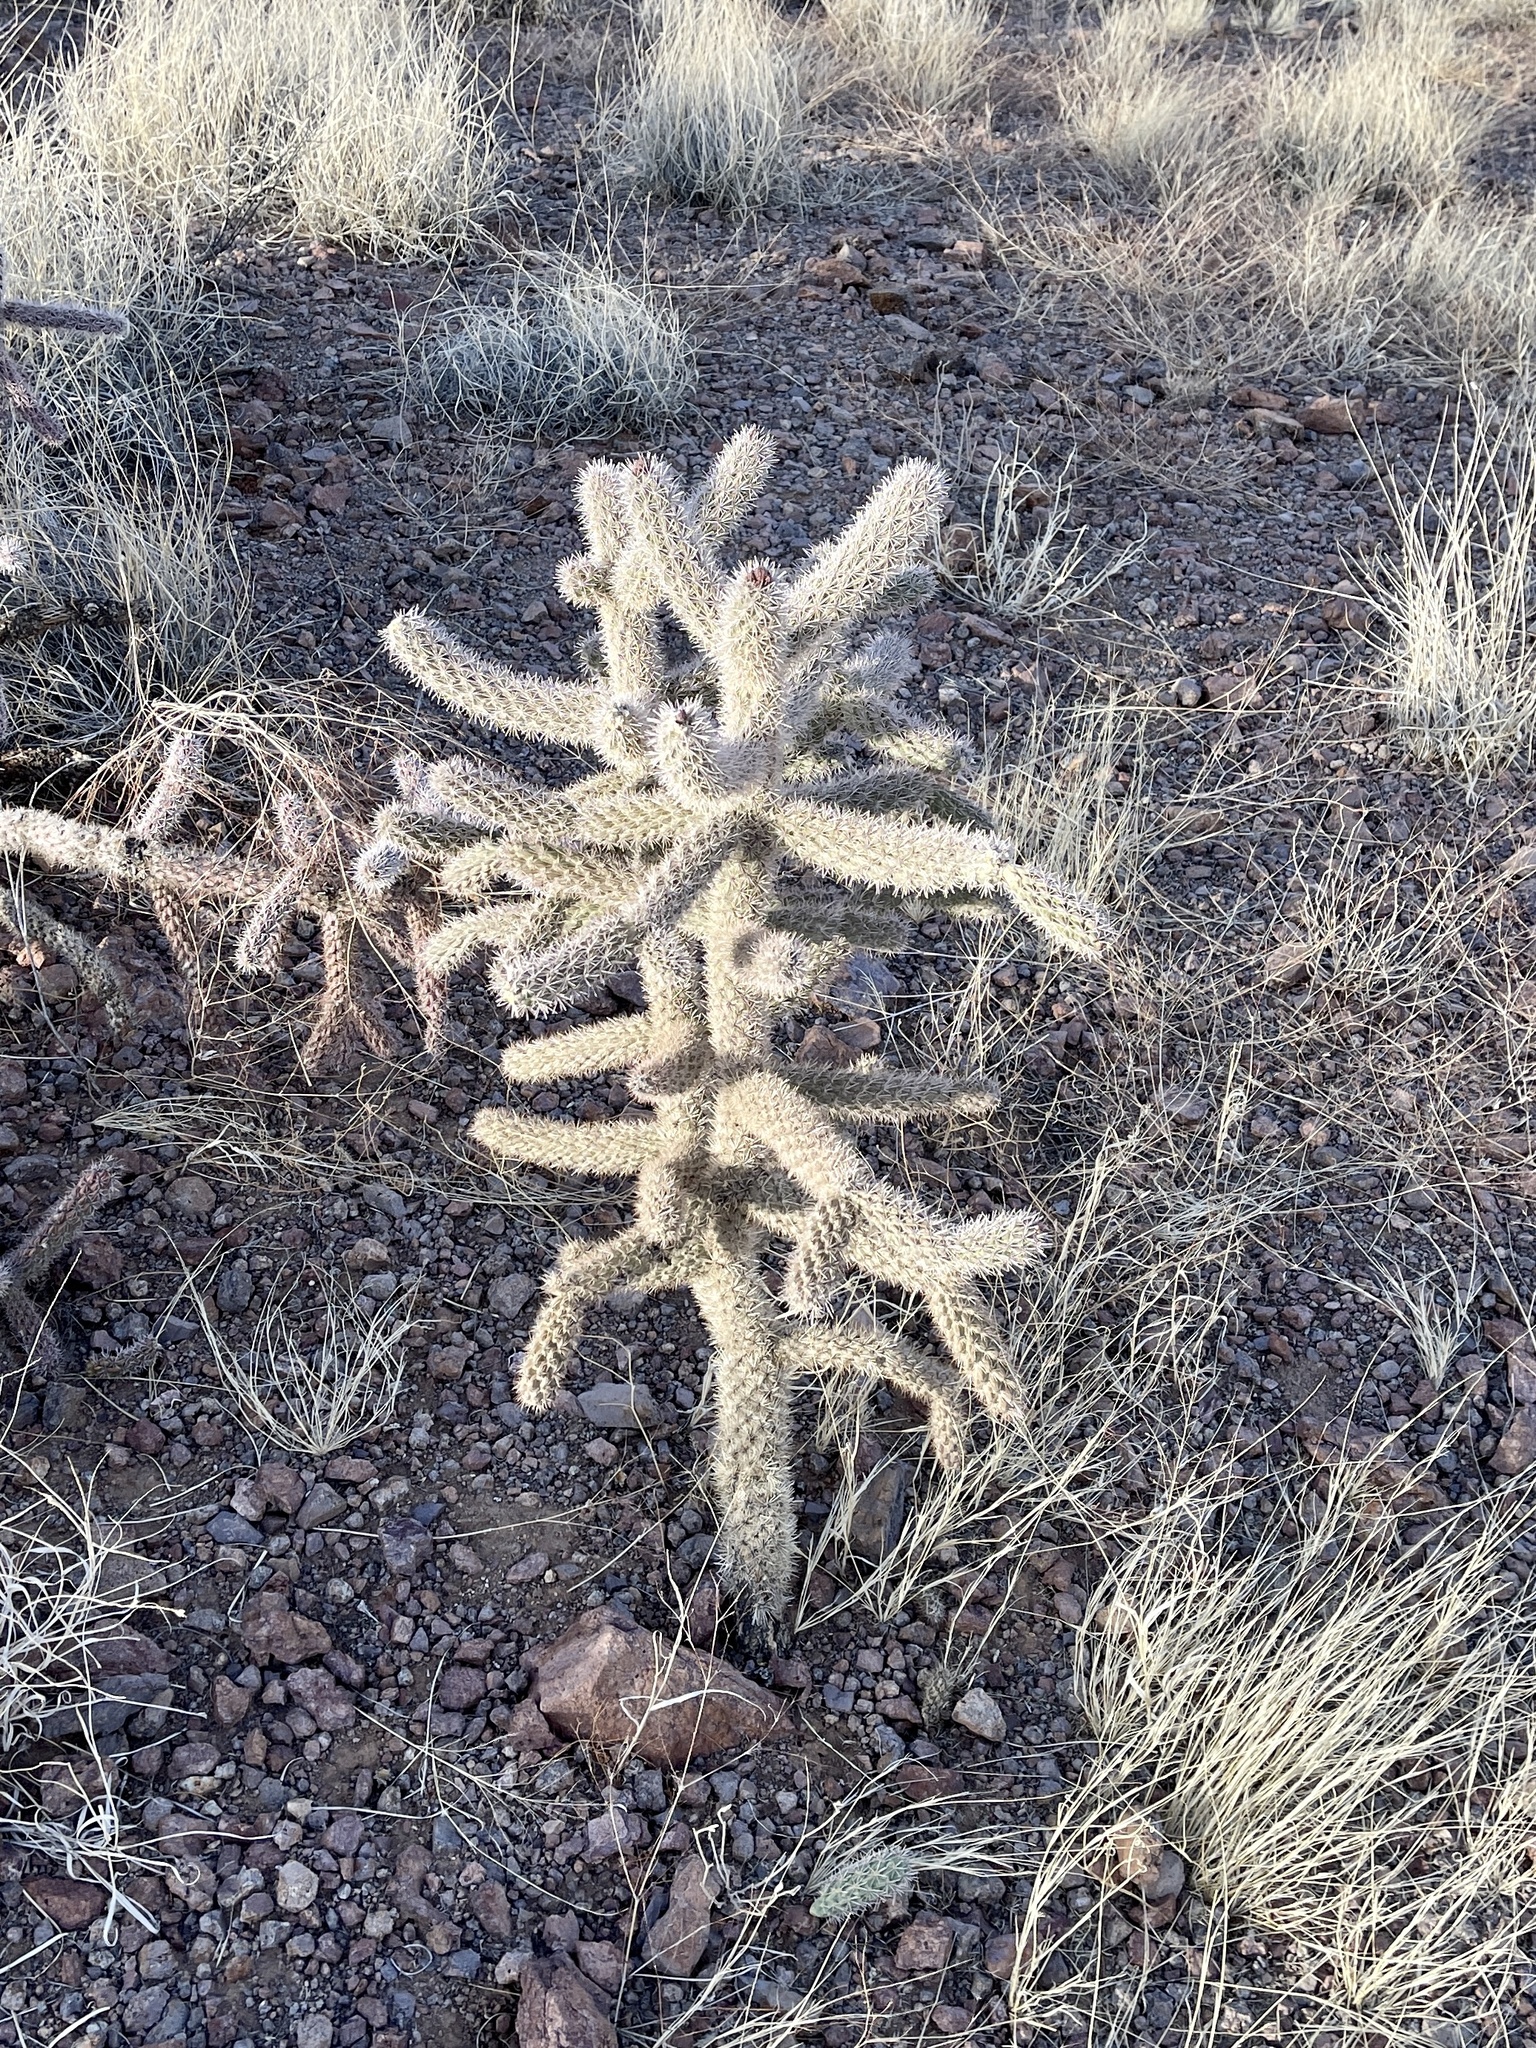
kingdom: Plantae
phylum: Tracheophyta
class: Magnoliopsida
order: Caryophyllales
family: Cactaceae
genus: Cylindropuntia
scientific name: Cylindropuntia imbricata
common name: Candelabrum cactus
